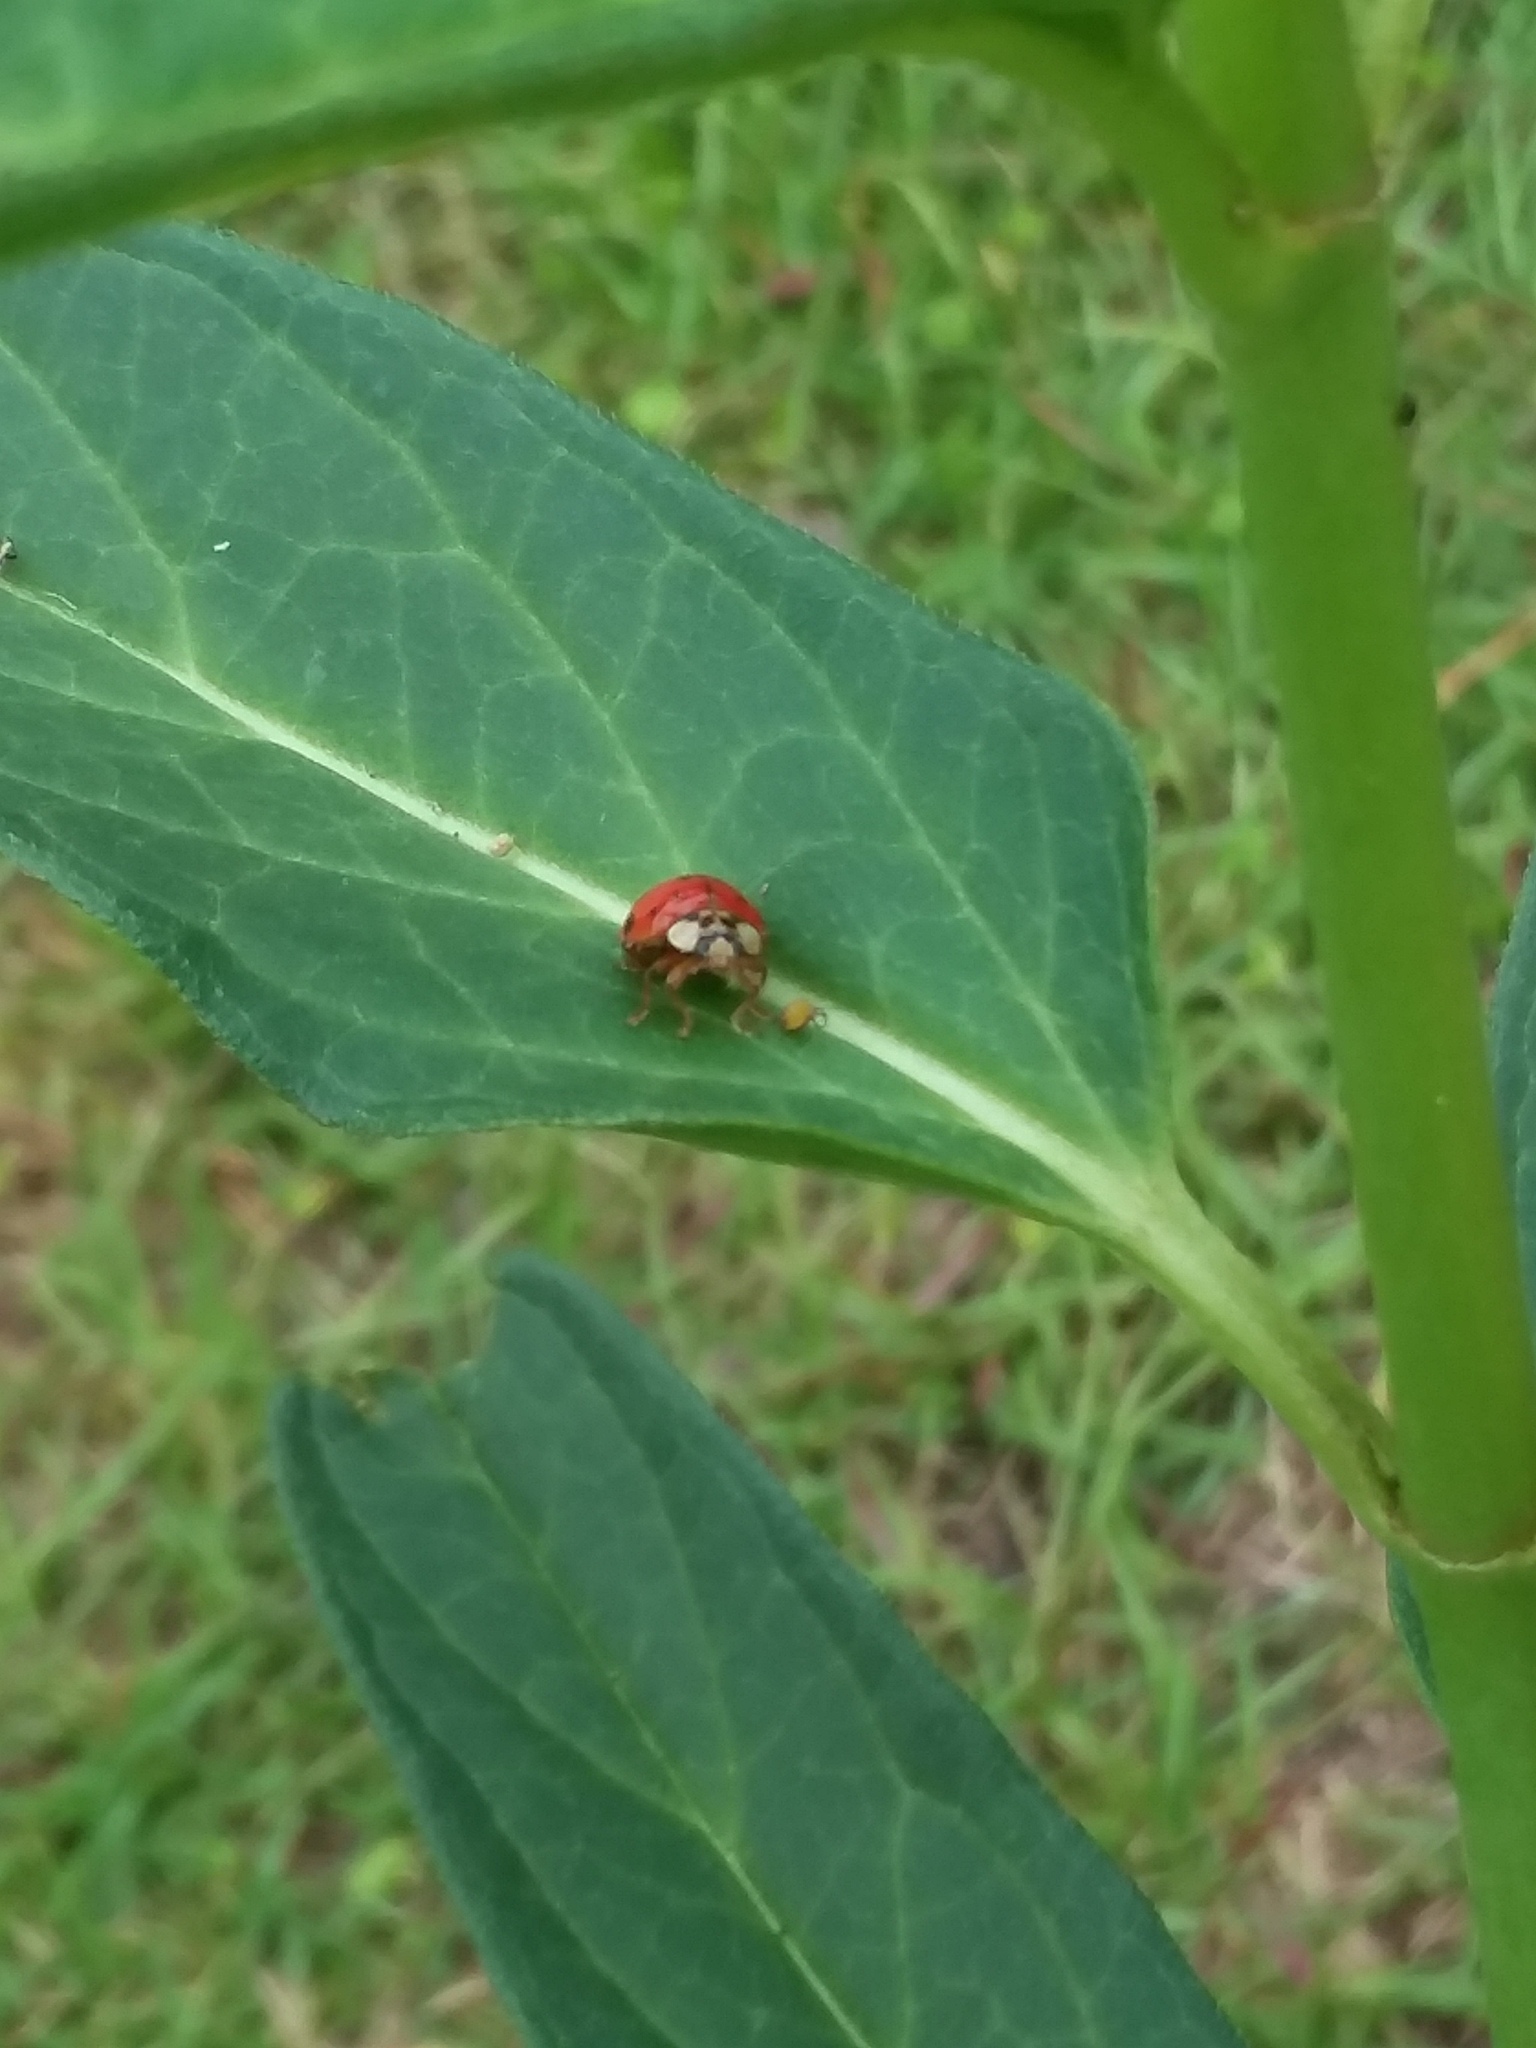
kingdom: Animalia
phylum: Arthropoda
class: Insecta
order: Coleoptera
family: Coccinellidae
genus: Harmonia
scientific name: Harmonia axyridis
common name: Harlequin ladybird
